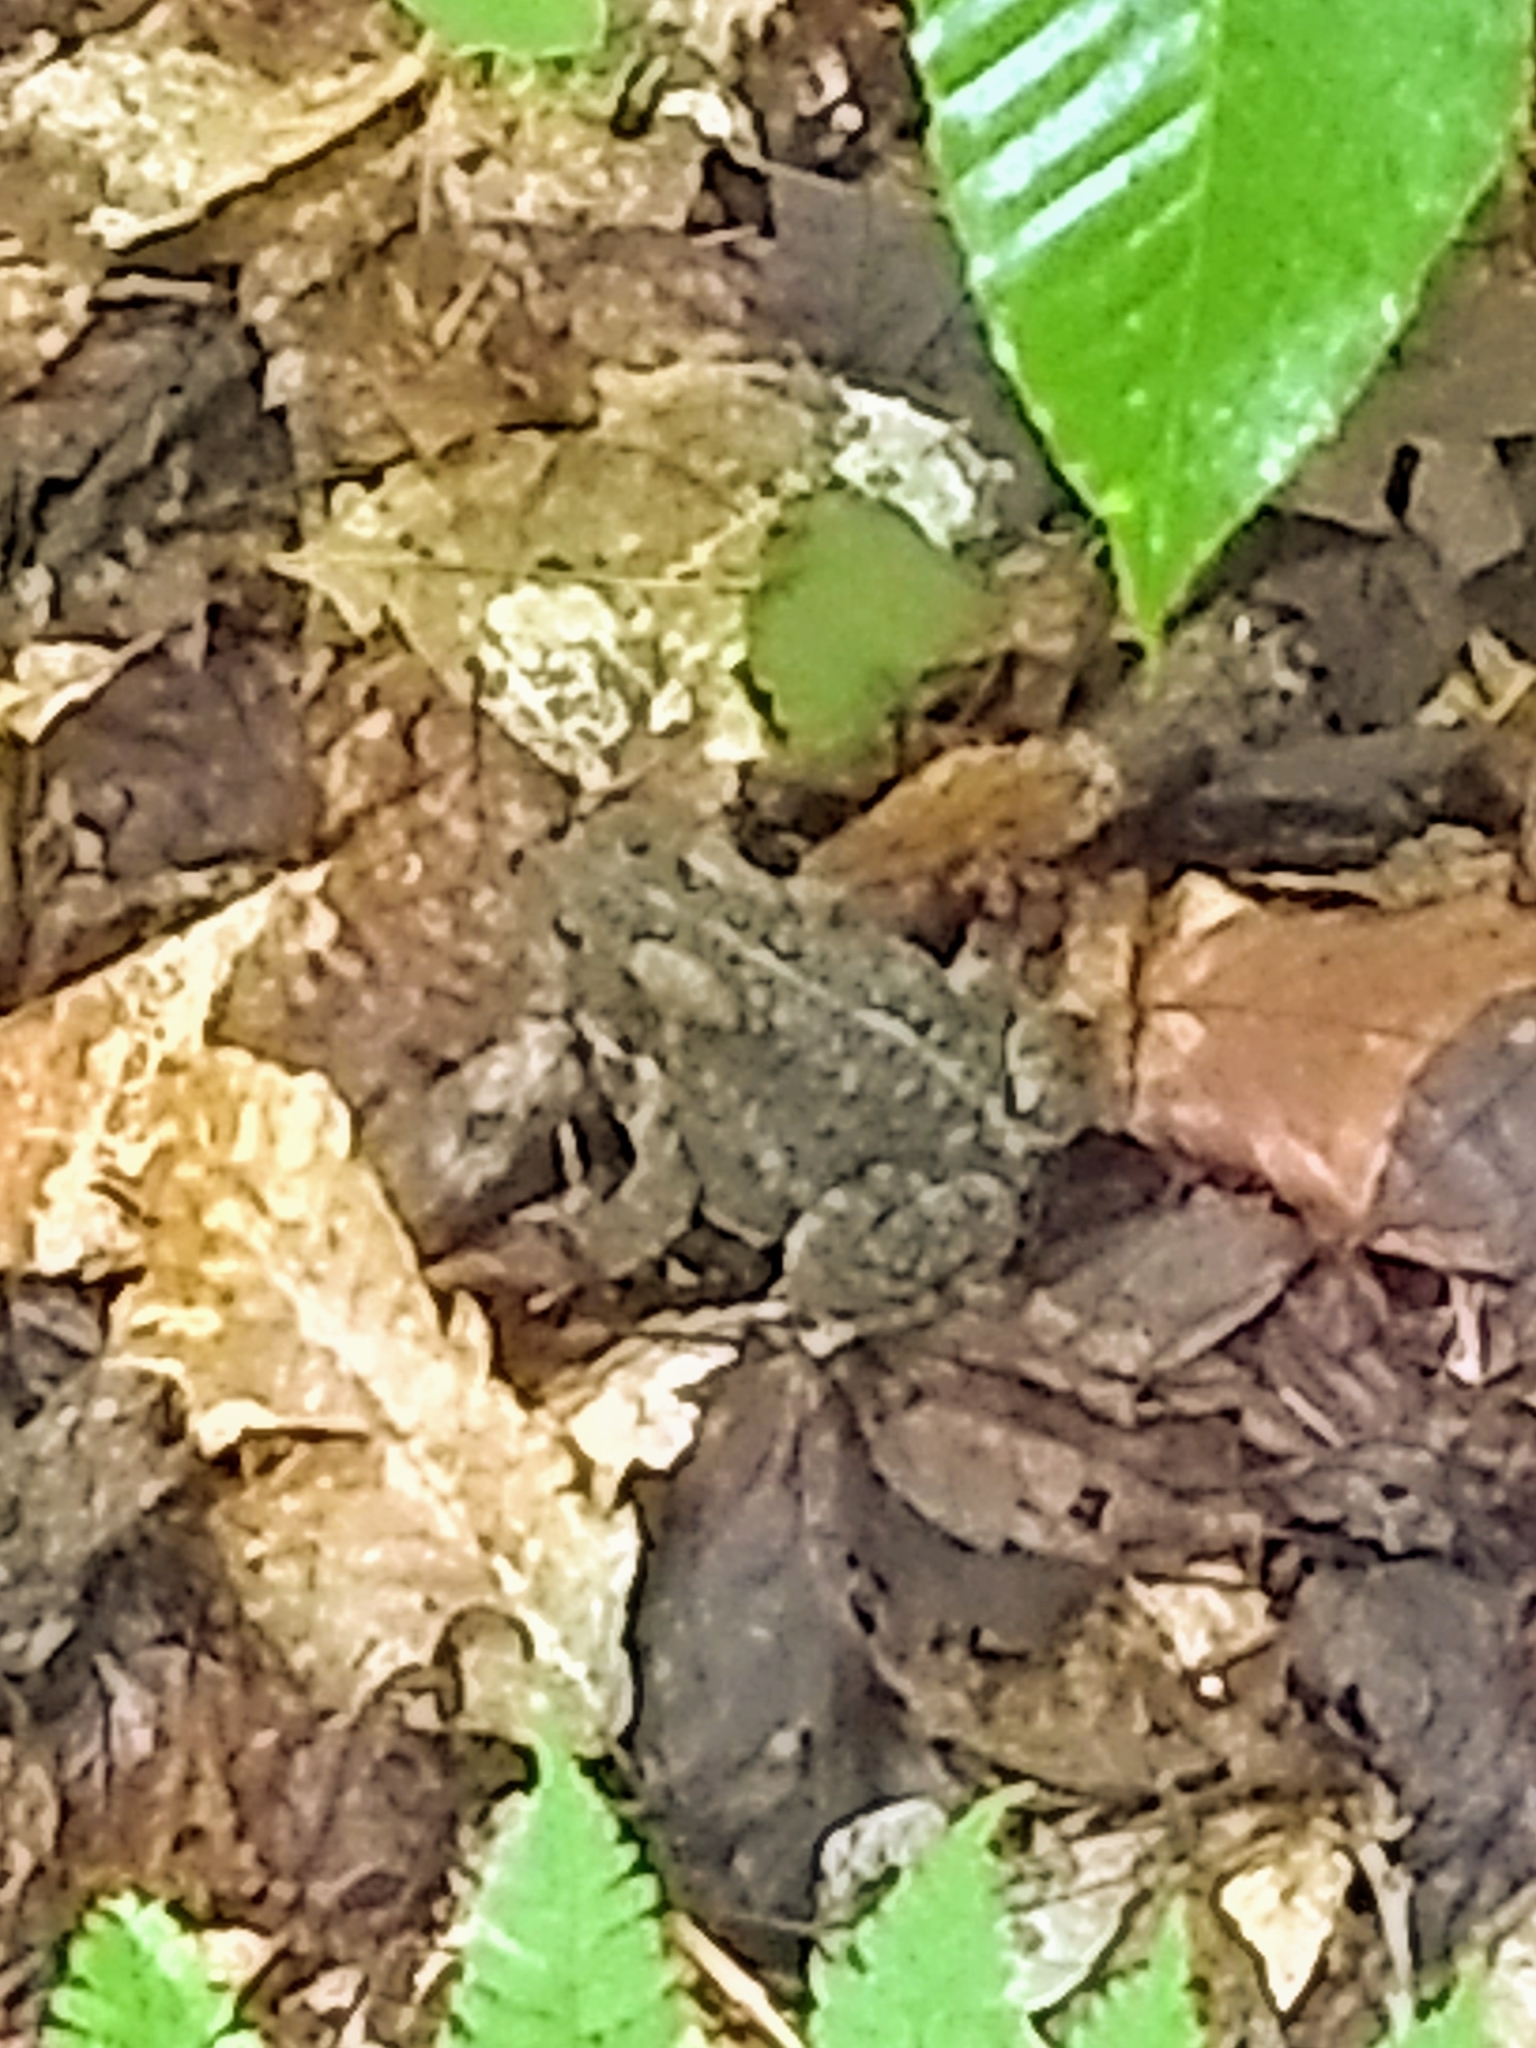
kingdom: Animalia
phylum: Chordata
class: Amphibia
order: Anura
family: Bufonidae
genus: Anaxyrus
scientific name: Anaxyrus americanus
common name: American toad
